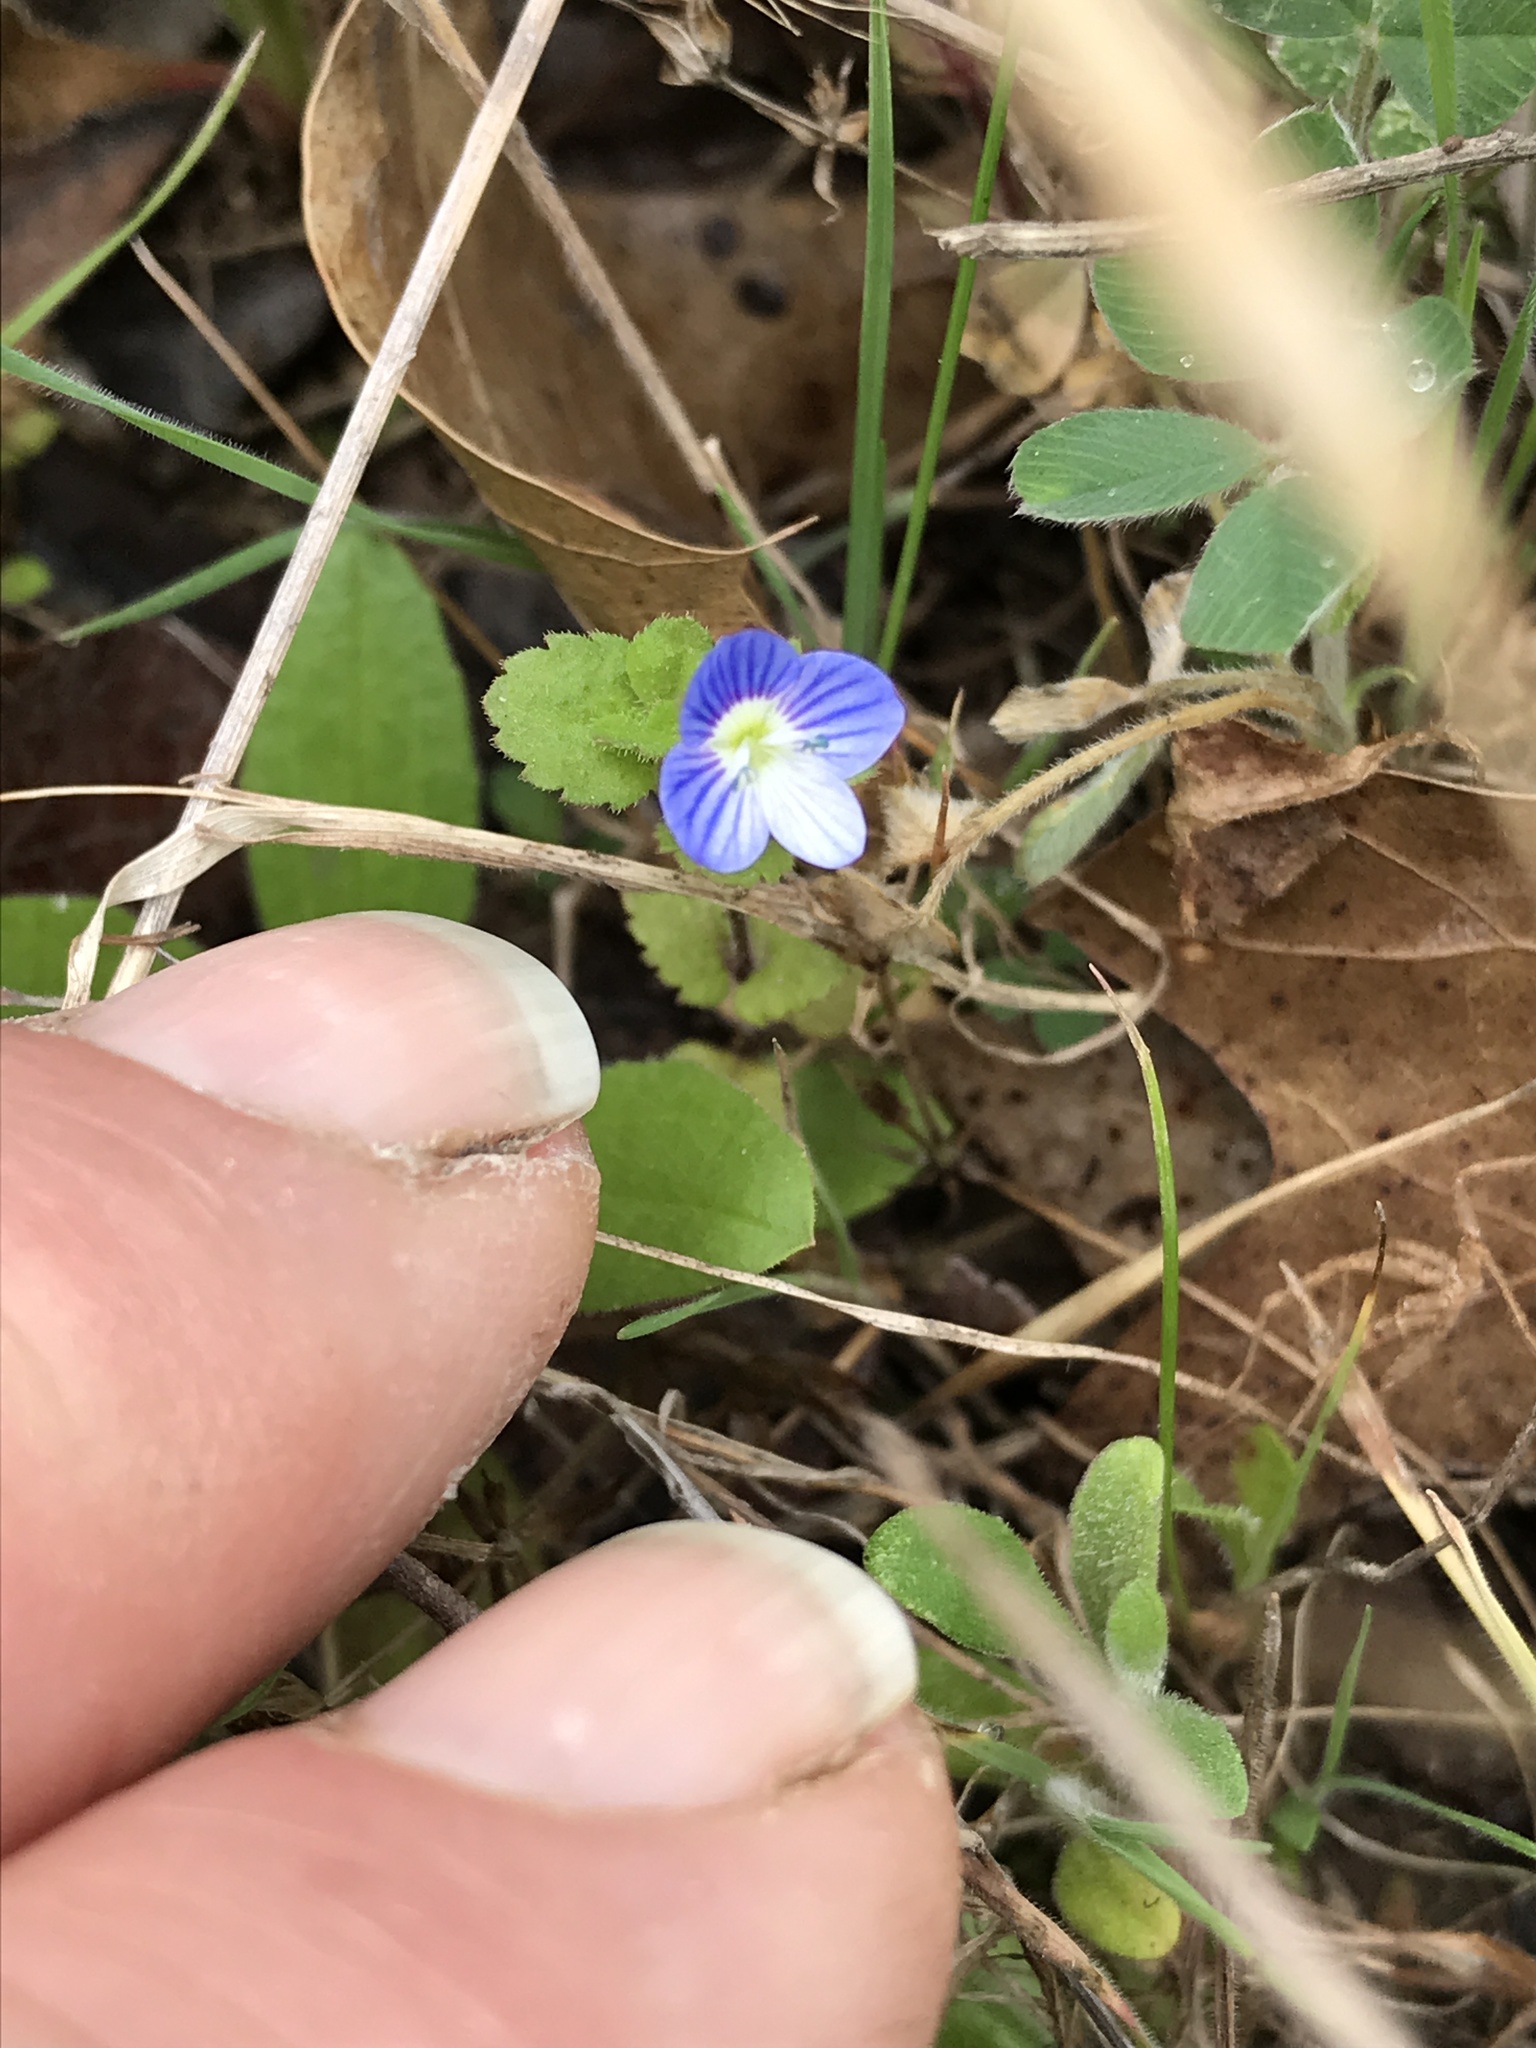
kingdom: Plantae
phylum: Tracheophyta
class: Magnoliopsida
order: Lamiales
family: Plantaginaceae
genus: Veronica
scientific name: Veronica persica
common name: Common field-speedwell
